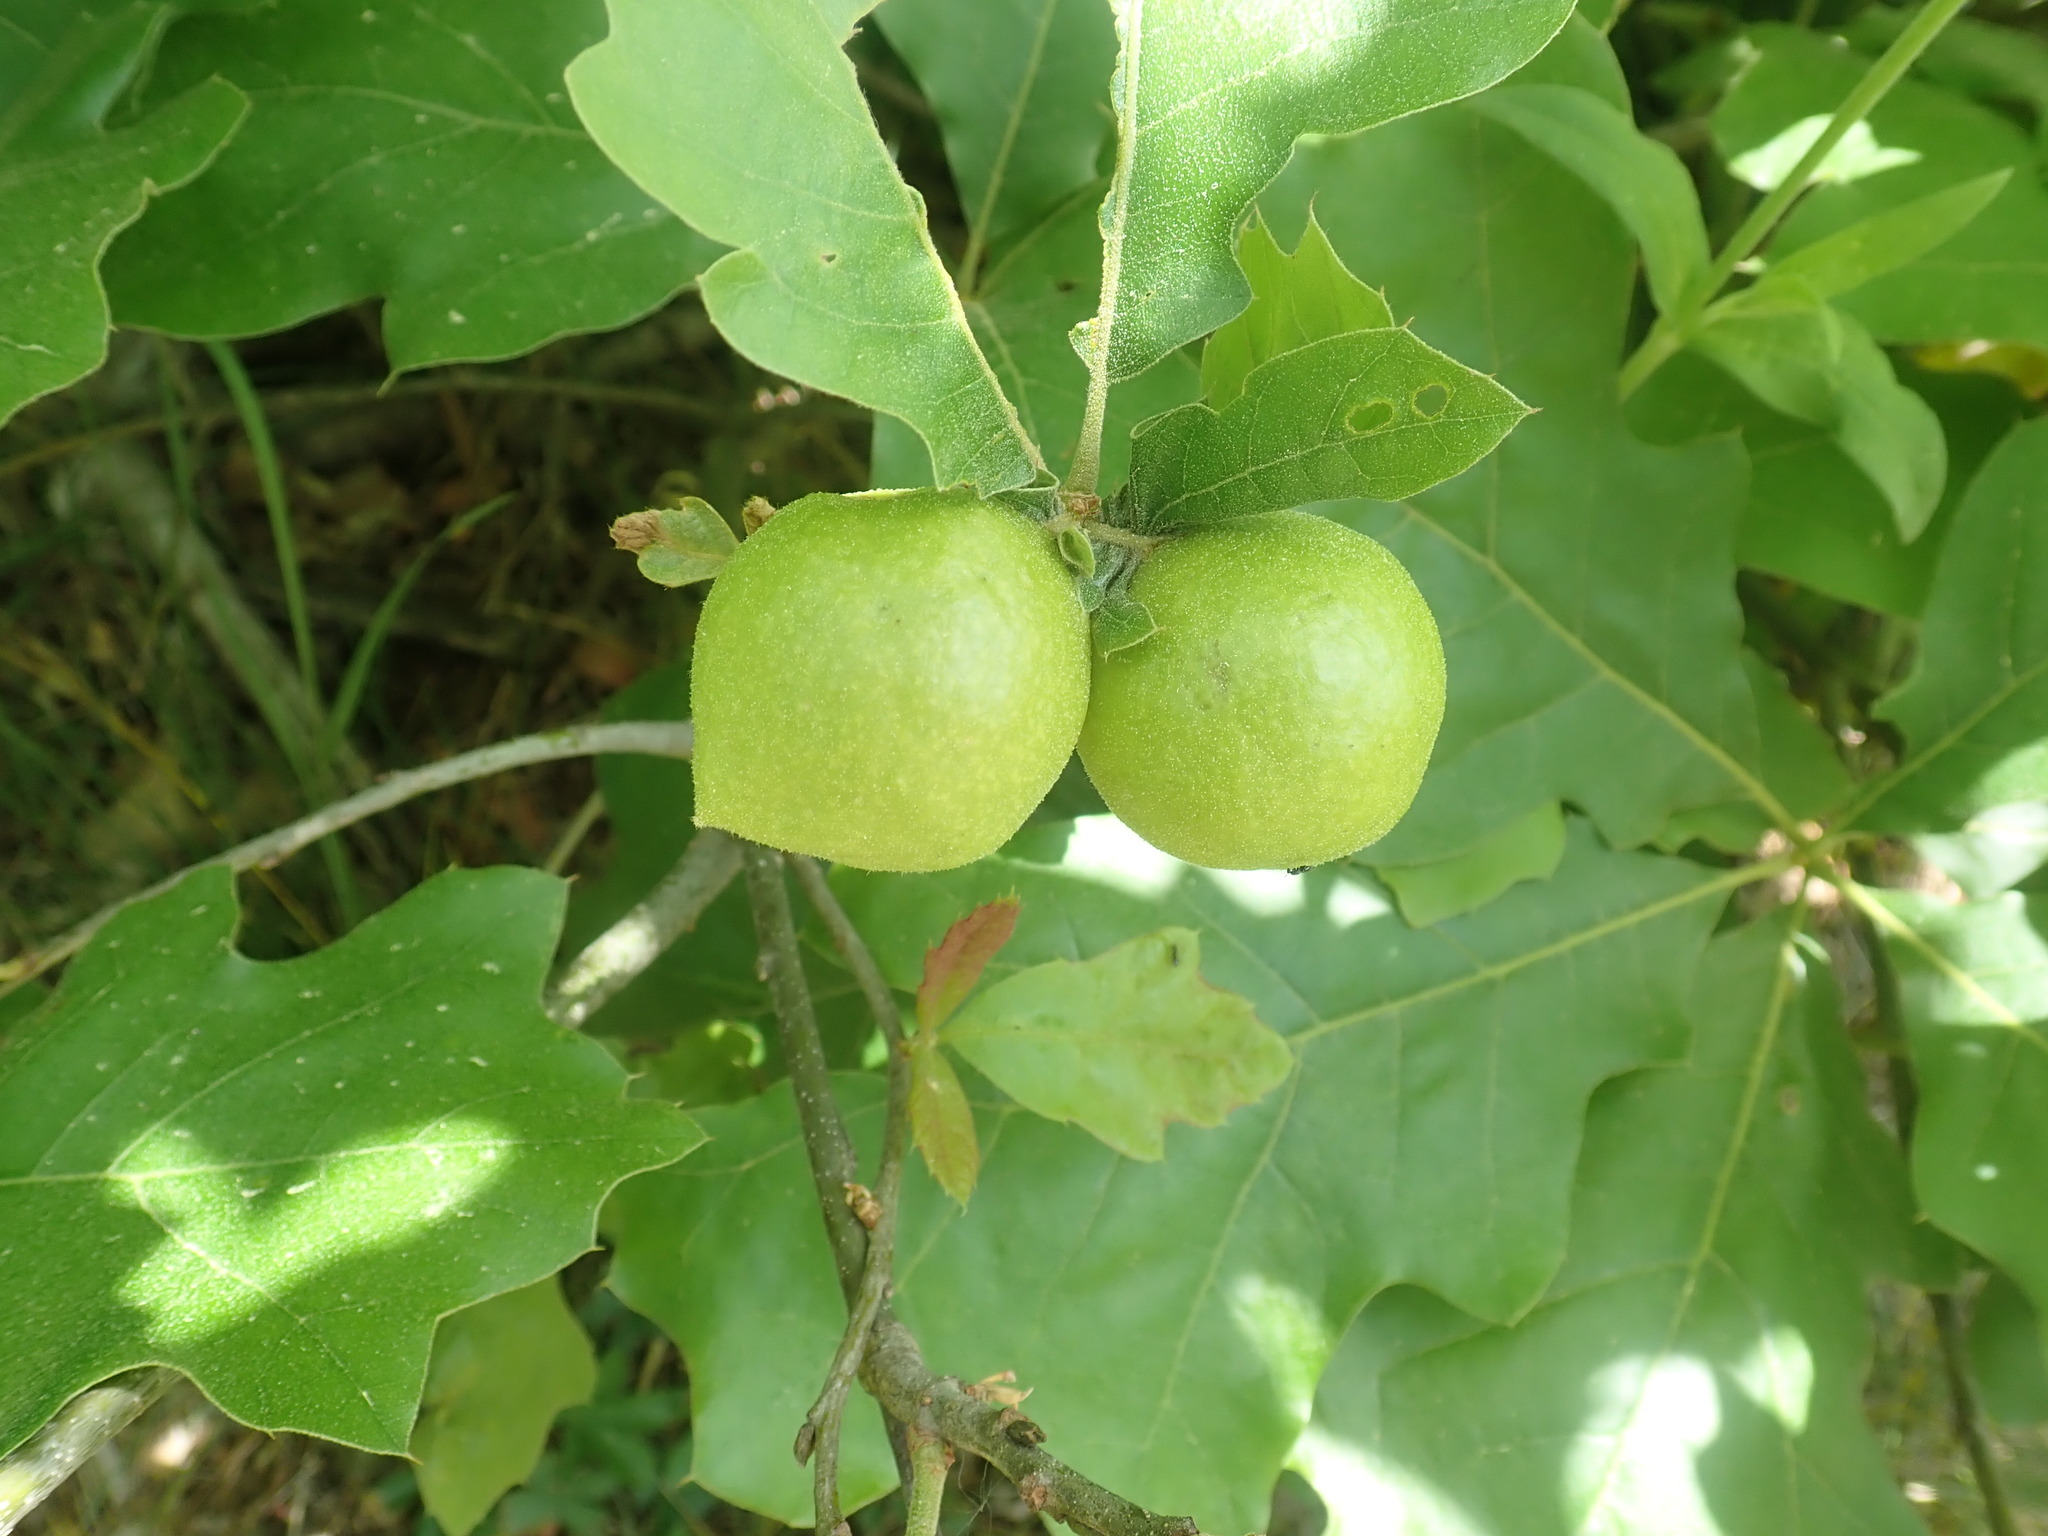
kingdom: Animalia
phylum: Arthropoda
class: Insecta
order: Hymenoptera
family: Cynipidae
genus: Amphibolips
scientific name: Amphibolips
